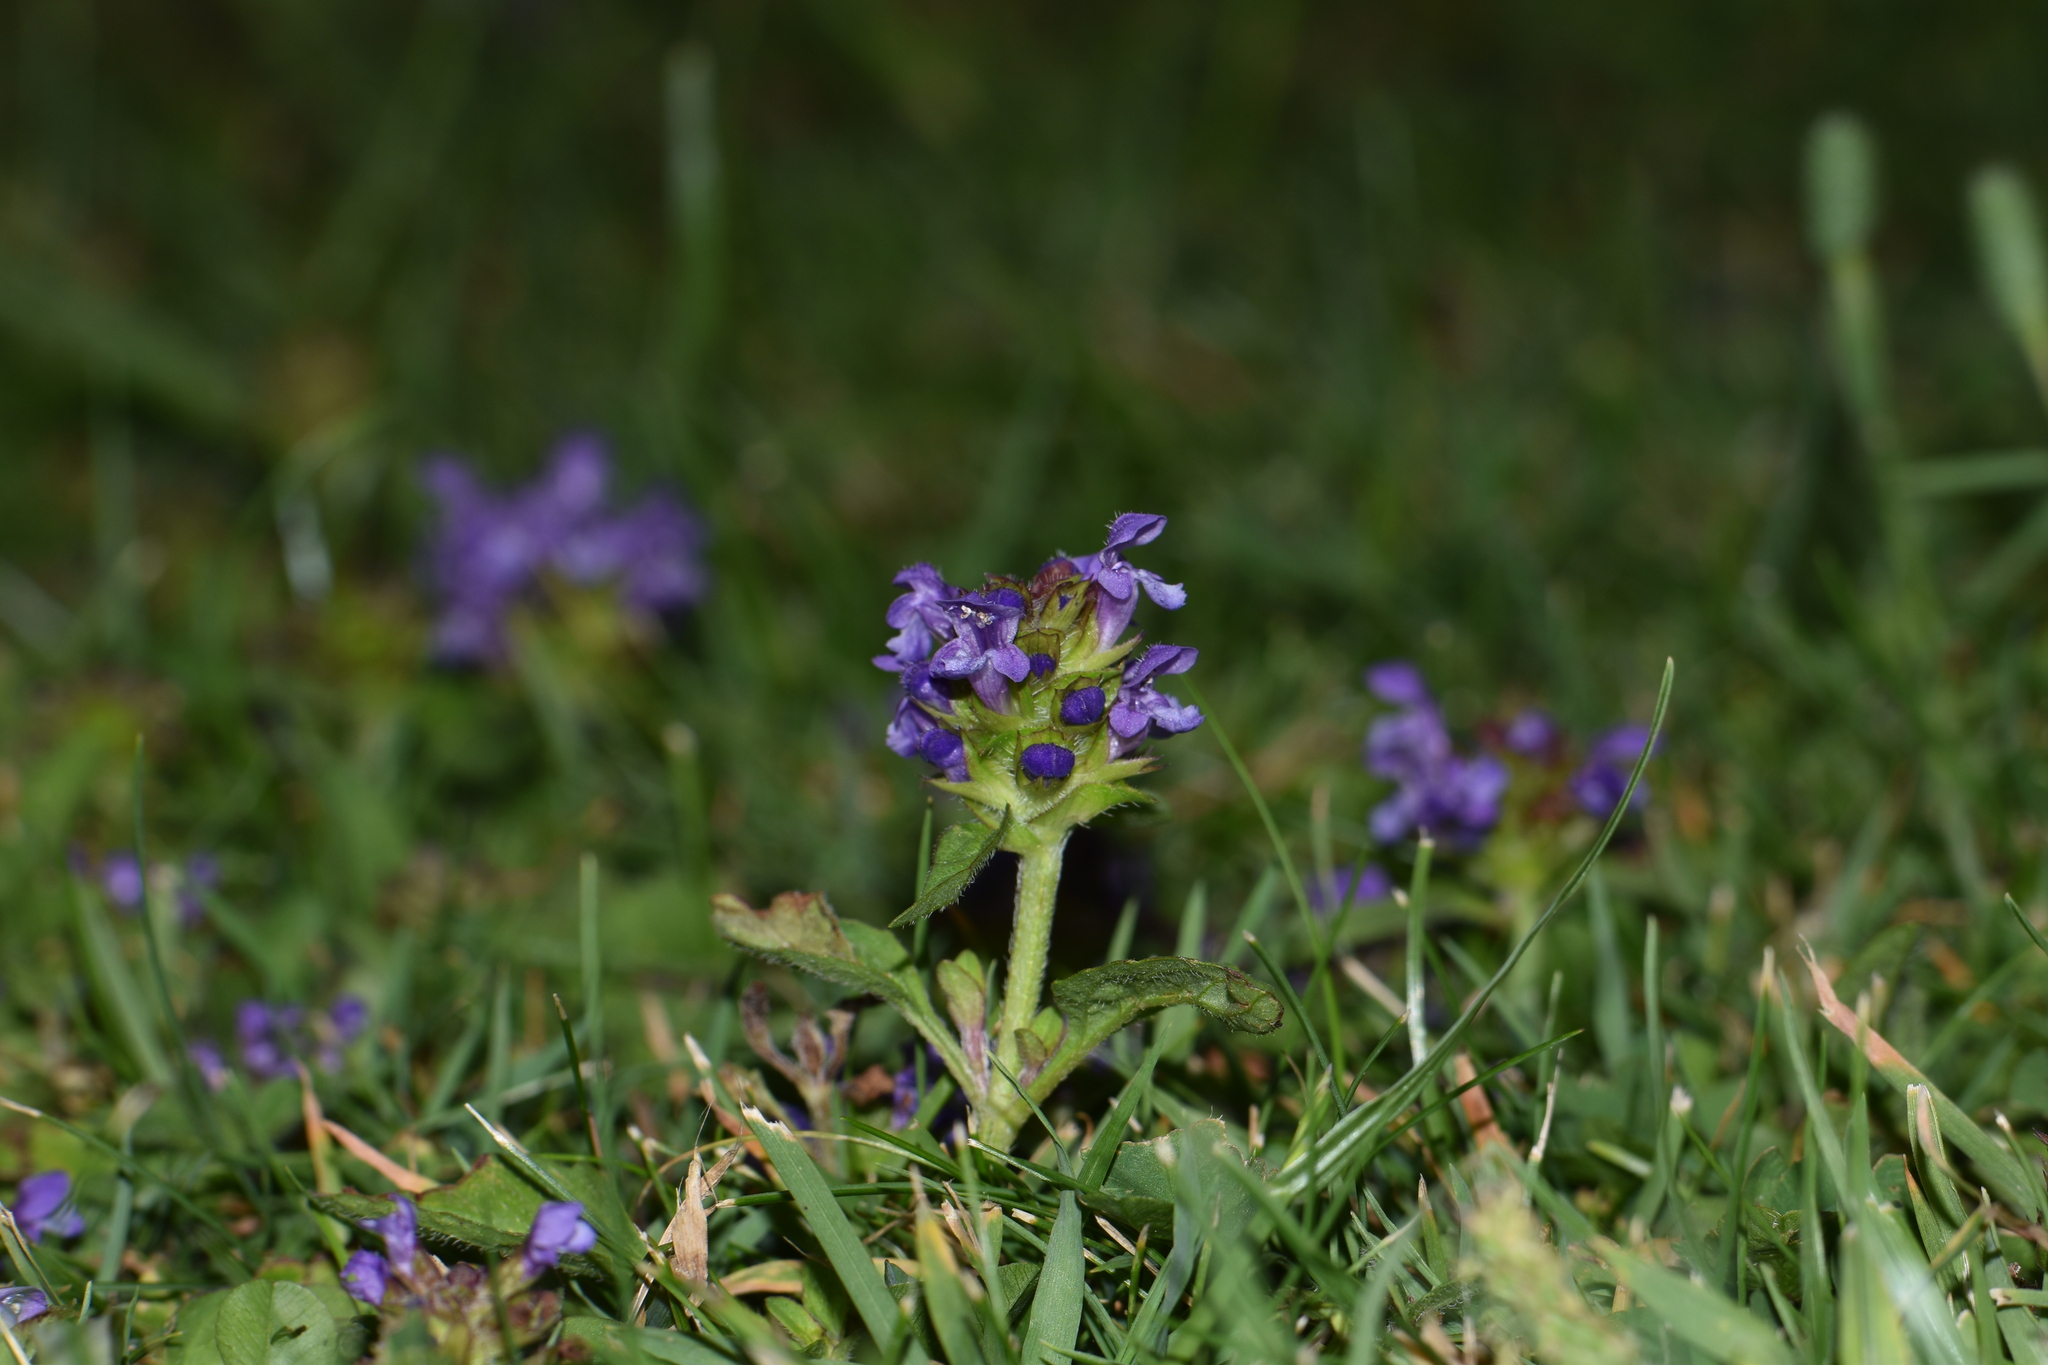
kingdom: Plantae
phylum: Tracheophyta
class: Magnoliopsida
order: Lamiales
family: Lamiaceae
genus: Prunella
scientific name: Prunella vulgaris
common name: Heal-all
